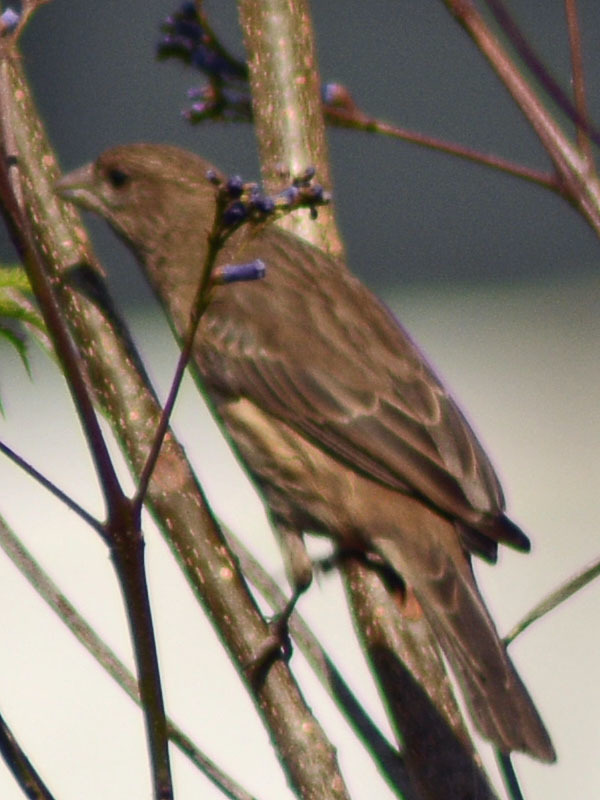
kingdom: Animalia
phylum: Chordata
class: Aves
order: Passeriformes
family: Fringillidae
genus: Haemorhous
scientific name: Haemorhous mexicanus
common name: House finch
